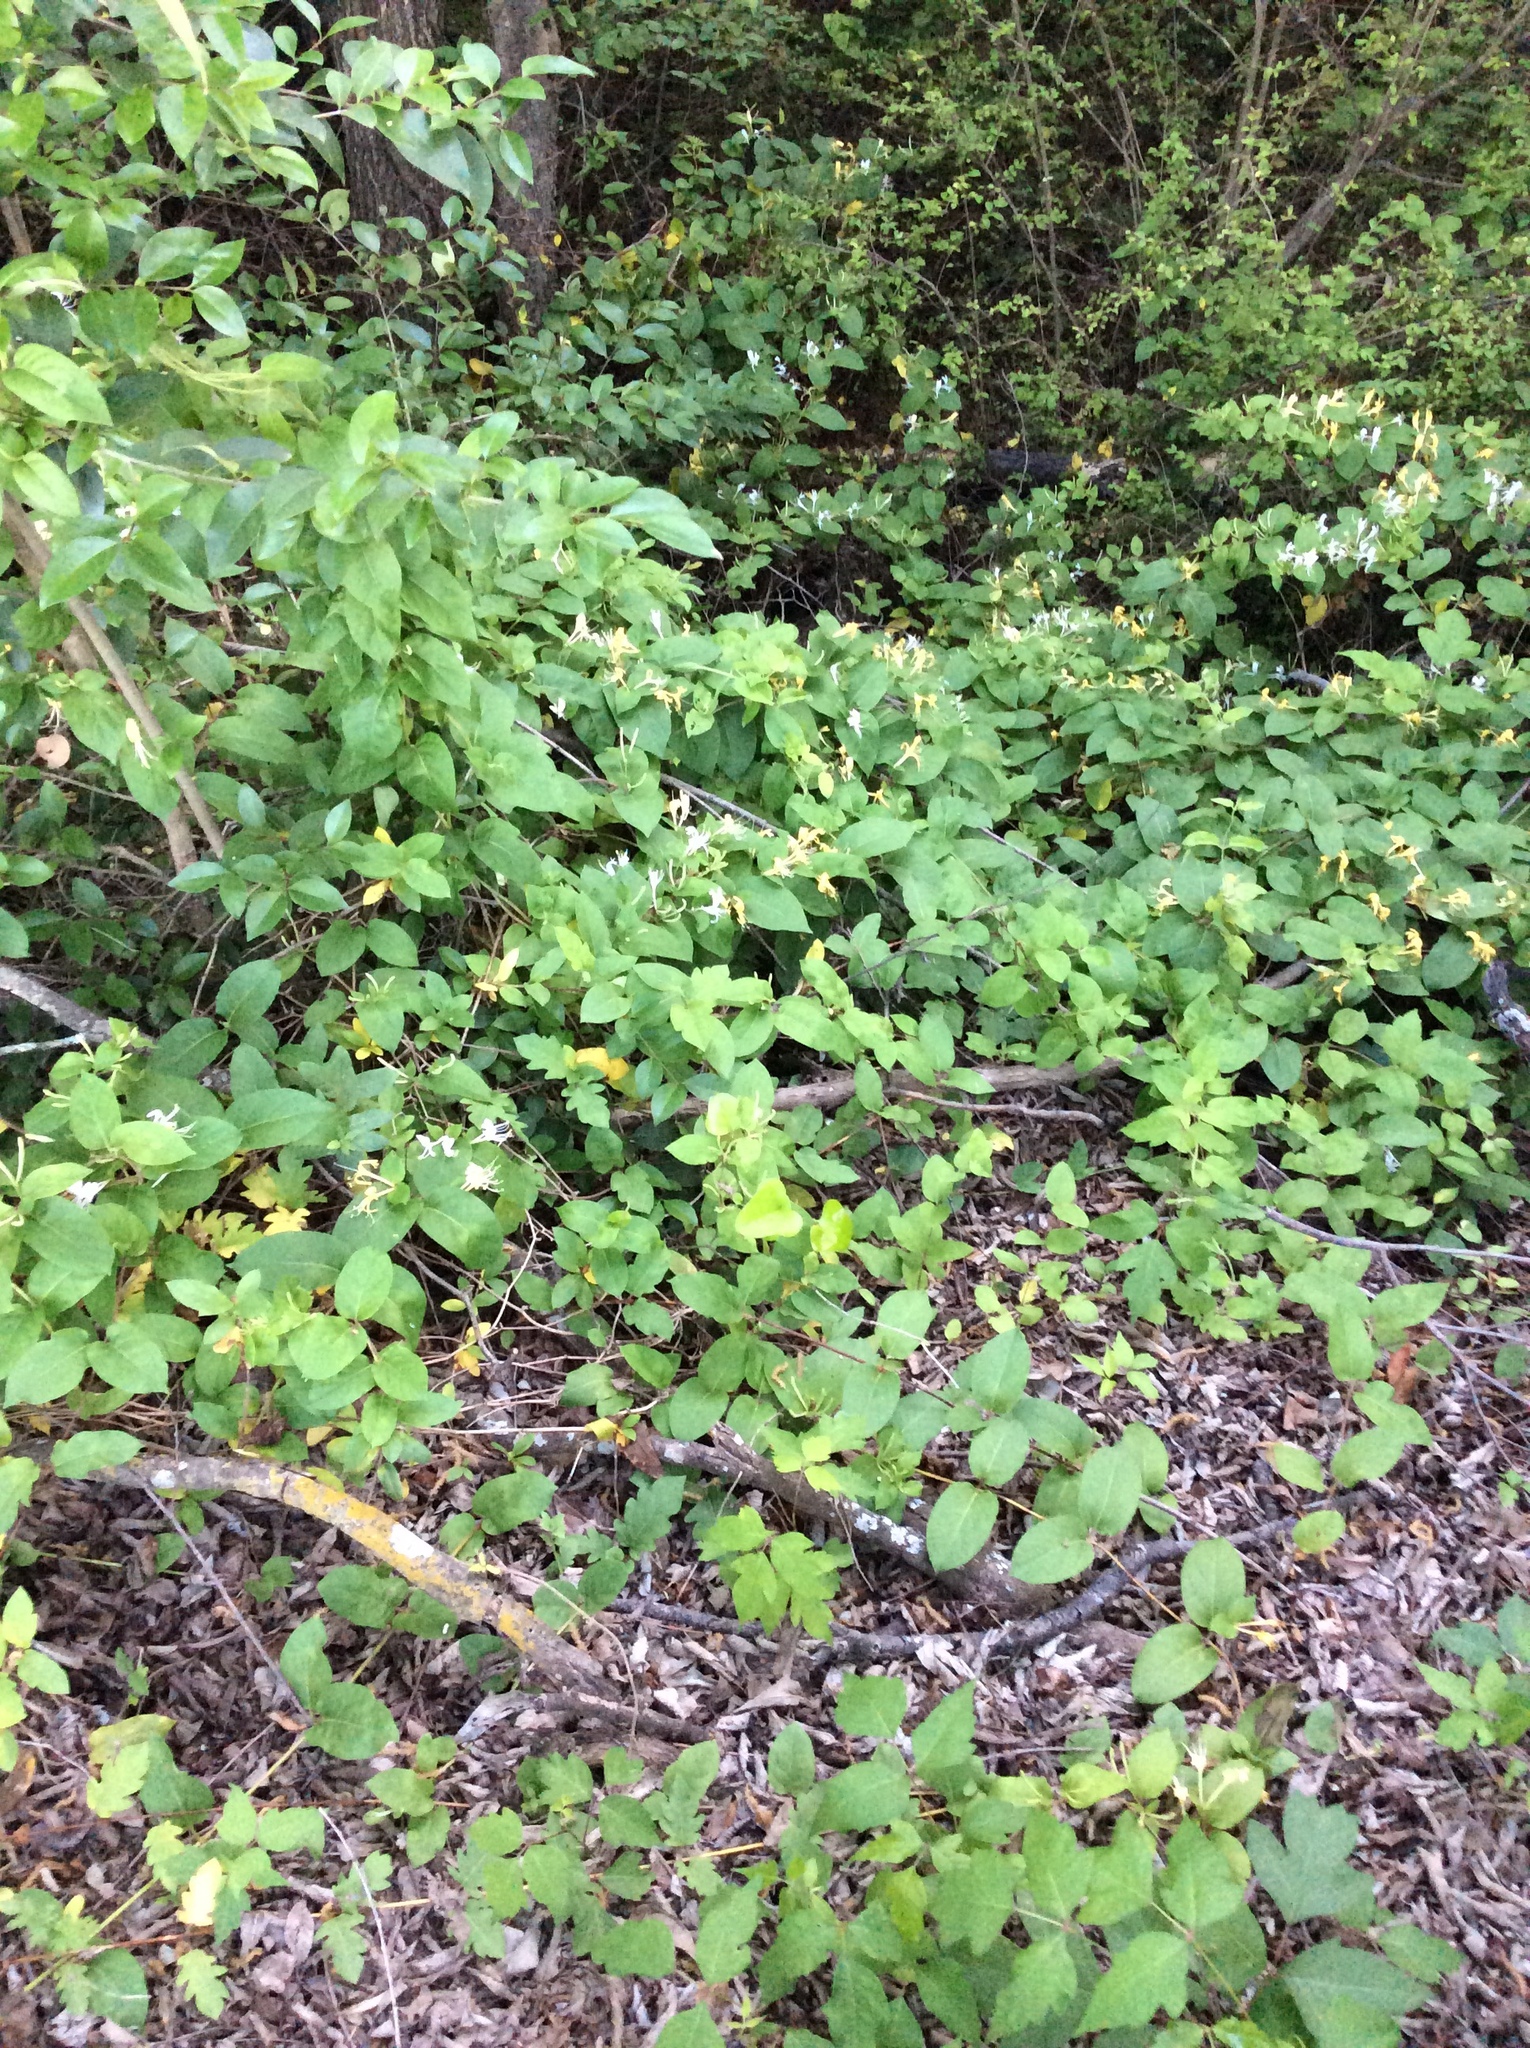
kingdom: Plantae
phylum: Tracheophyta
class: Magnoliopsida
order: Dipsacales
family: Caprifoliaceae
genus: Lonicera
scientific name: Lonicera japonica
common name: Japanese honeysuckle
